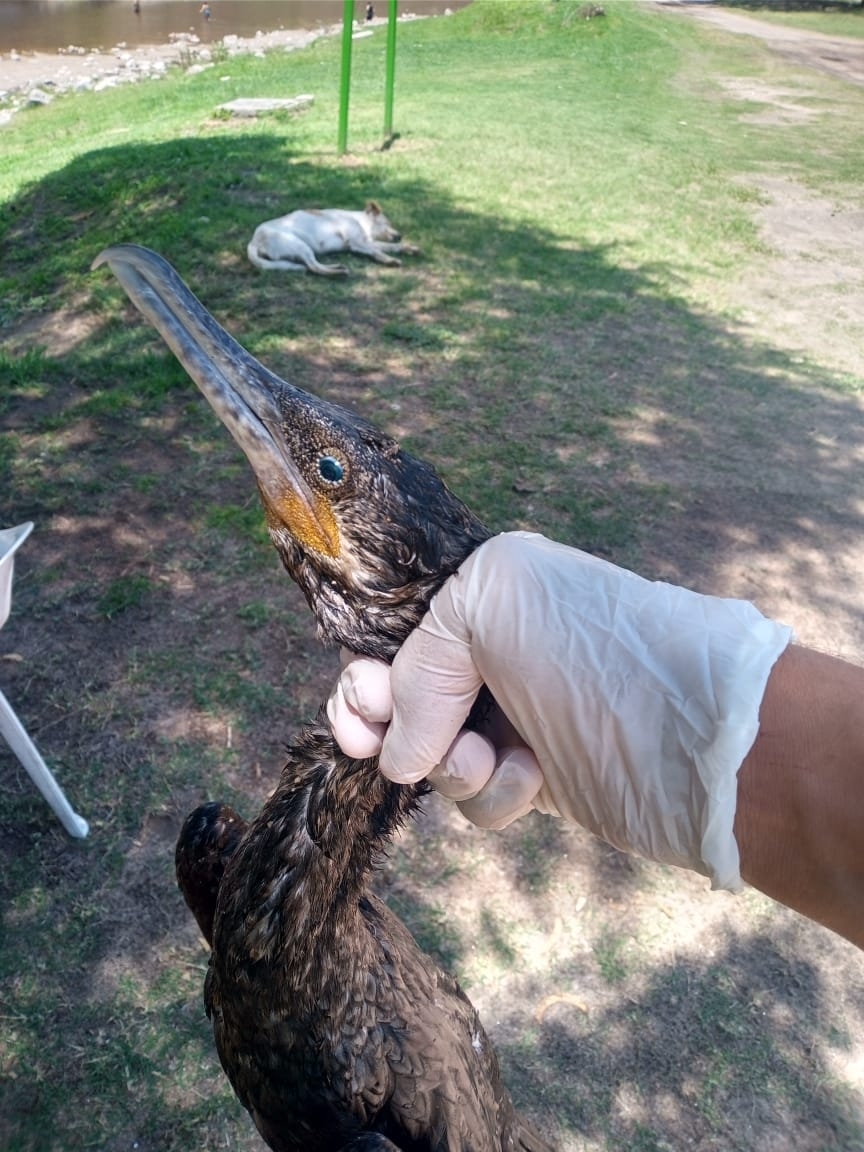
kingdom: Animalia
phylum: Chordata
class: Aves
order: Suliformes
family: Phalacrocoracidae
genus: Phalacrocorax
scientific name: Phalacrocorax brasilianus
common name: Neotropic cormorant
